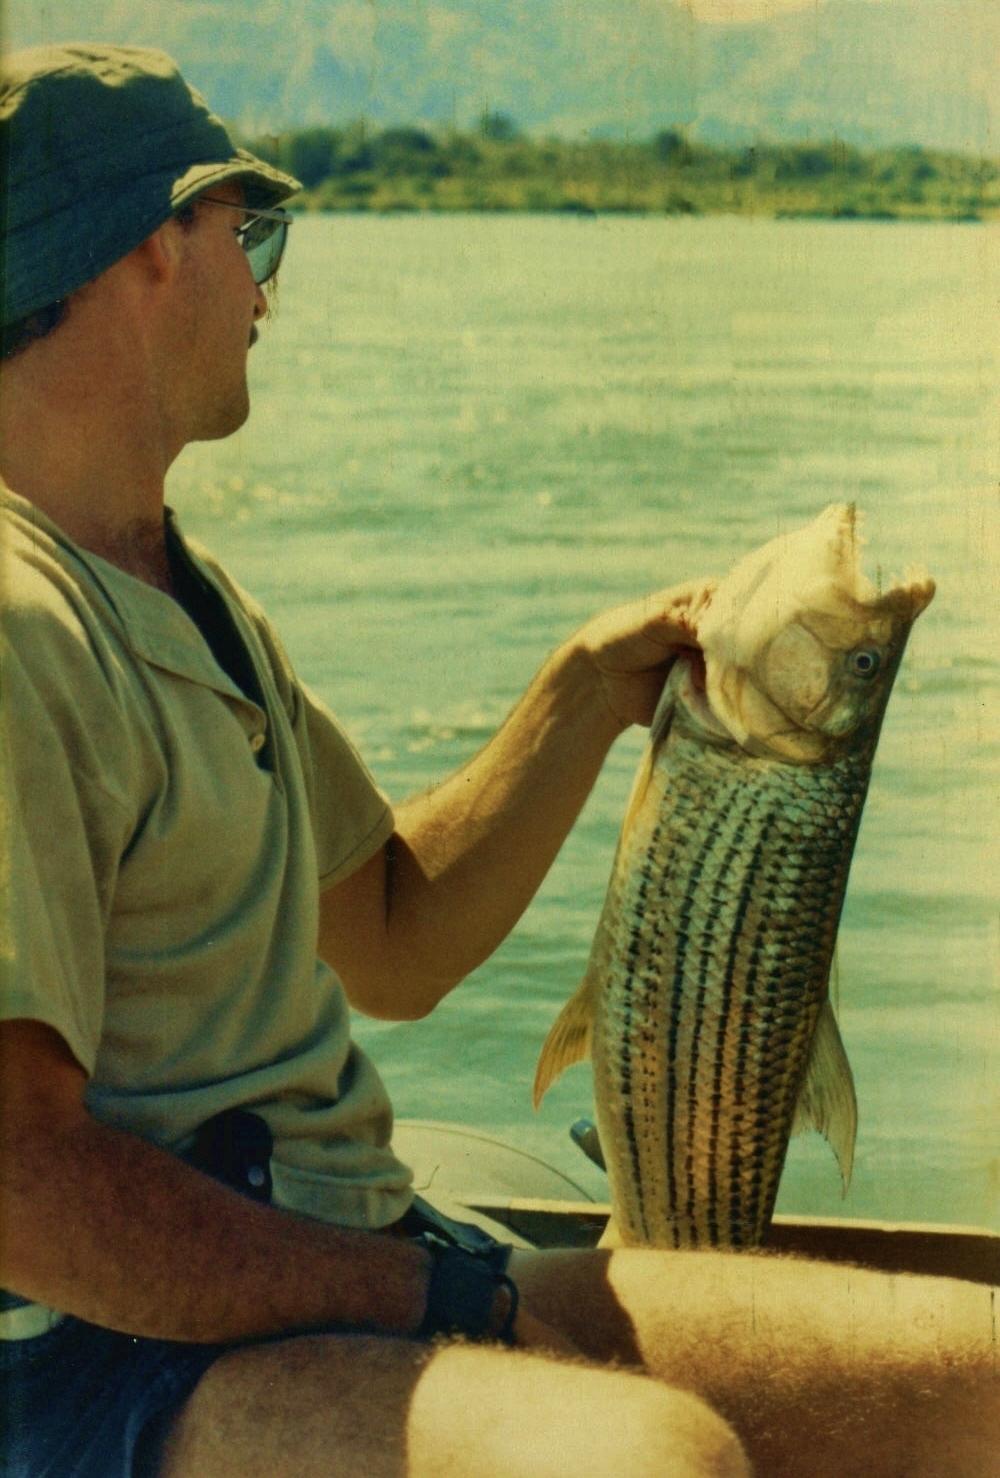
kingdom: Animalia
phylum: Chordata
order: Characiformes
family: Alestidae
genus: Hydrocynus
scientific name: Hydrocynus forskahlii
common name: Elongate tigerfish
